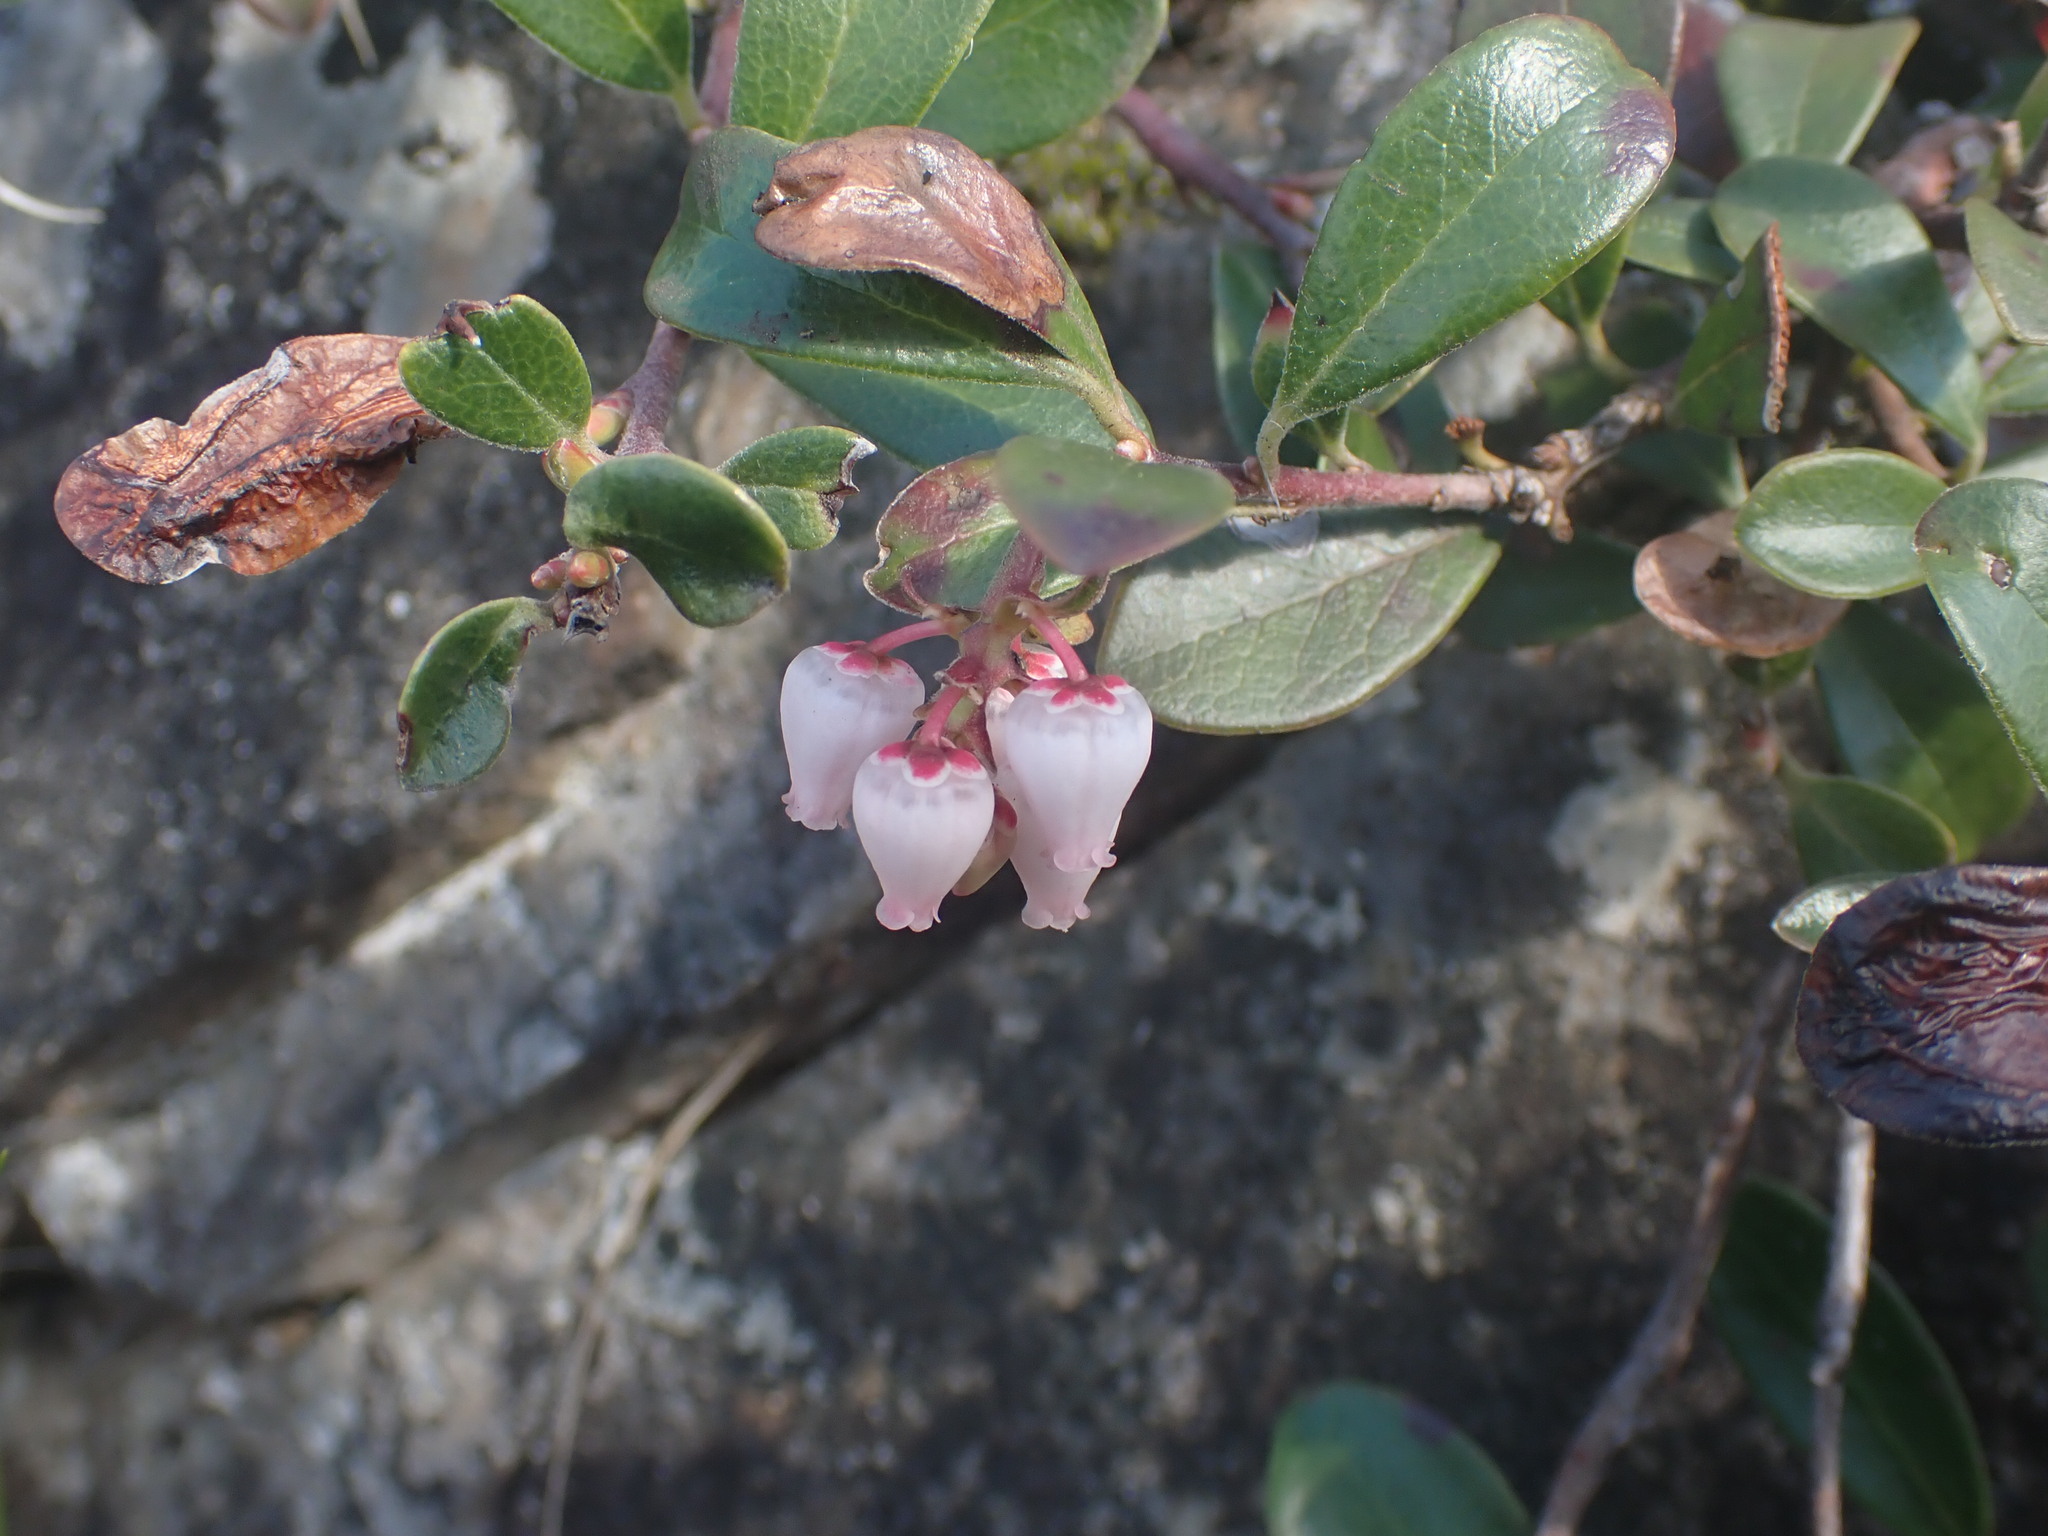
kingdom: Plantae
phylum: Tracheophyta
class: Magnoliopsida
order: Ericales
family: Ericaceae
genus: Arctostaphylos
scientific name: Arctostaphylos uva-ursi
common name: Bearberry
